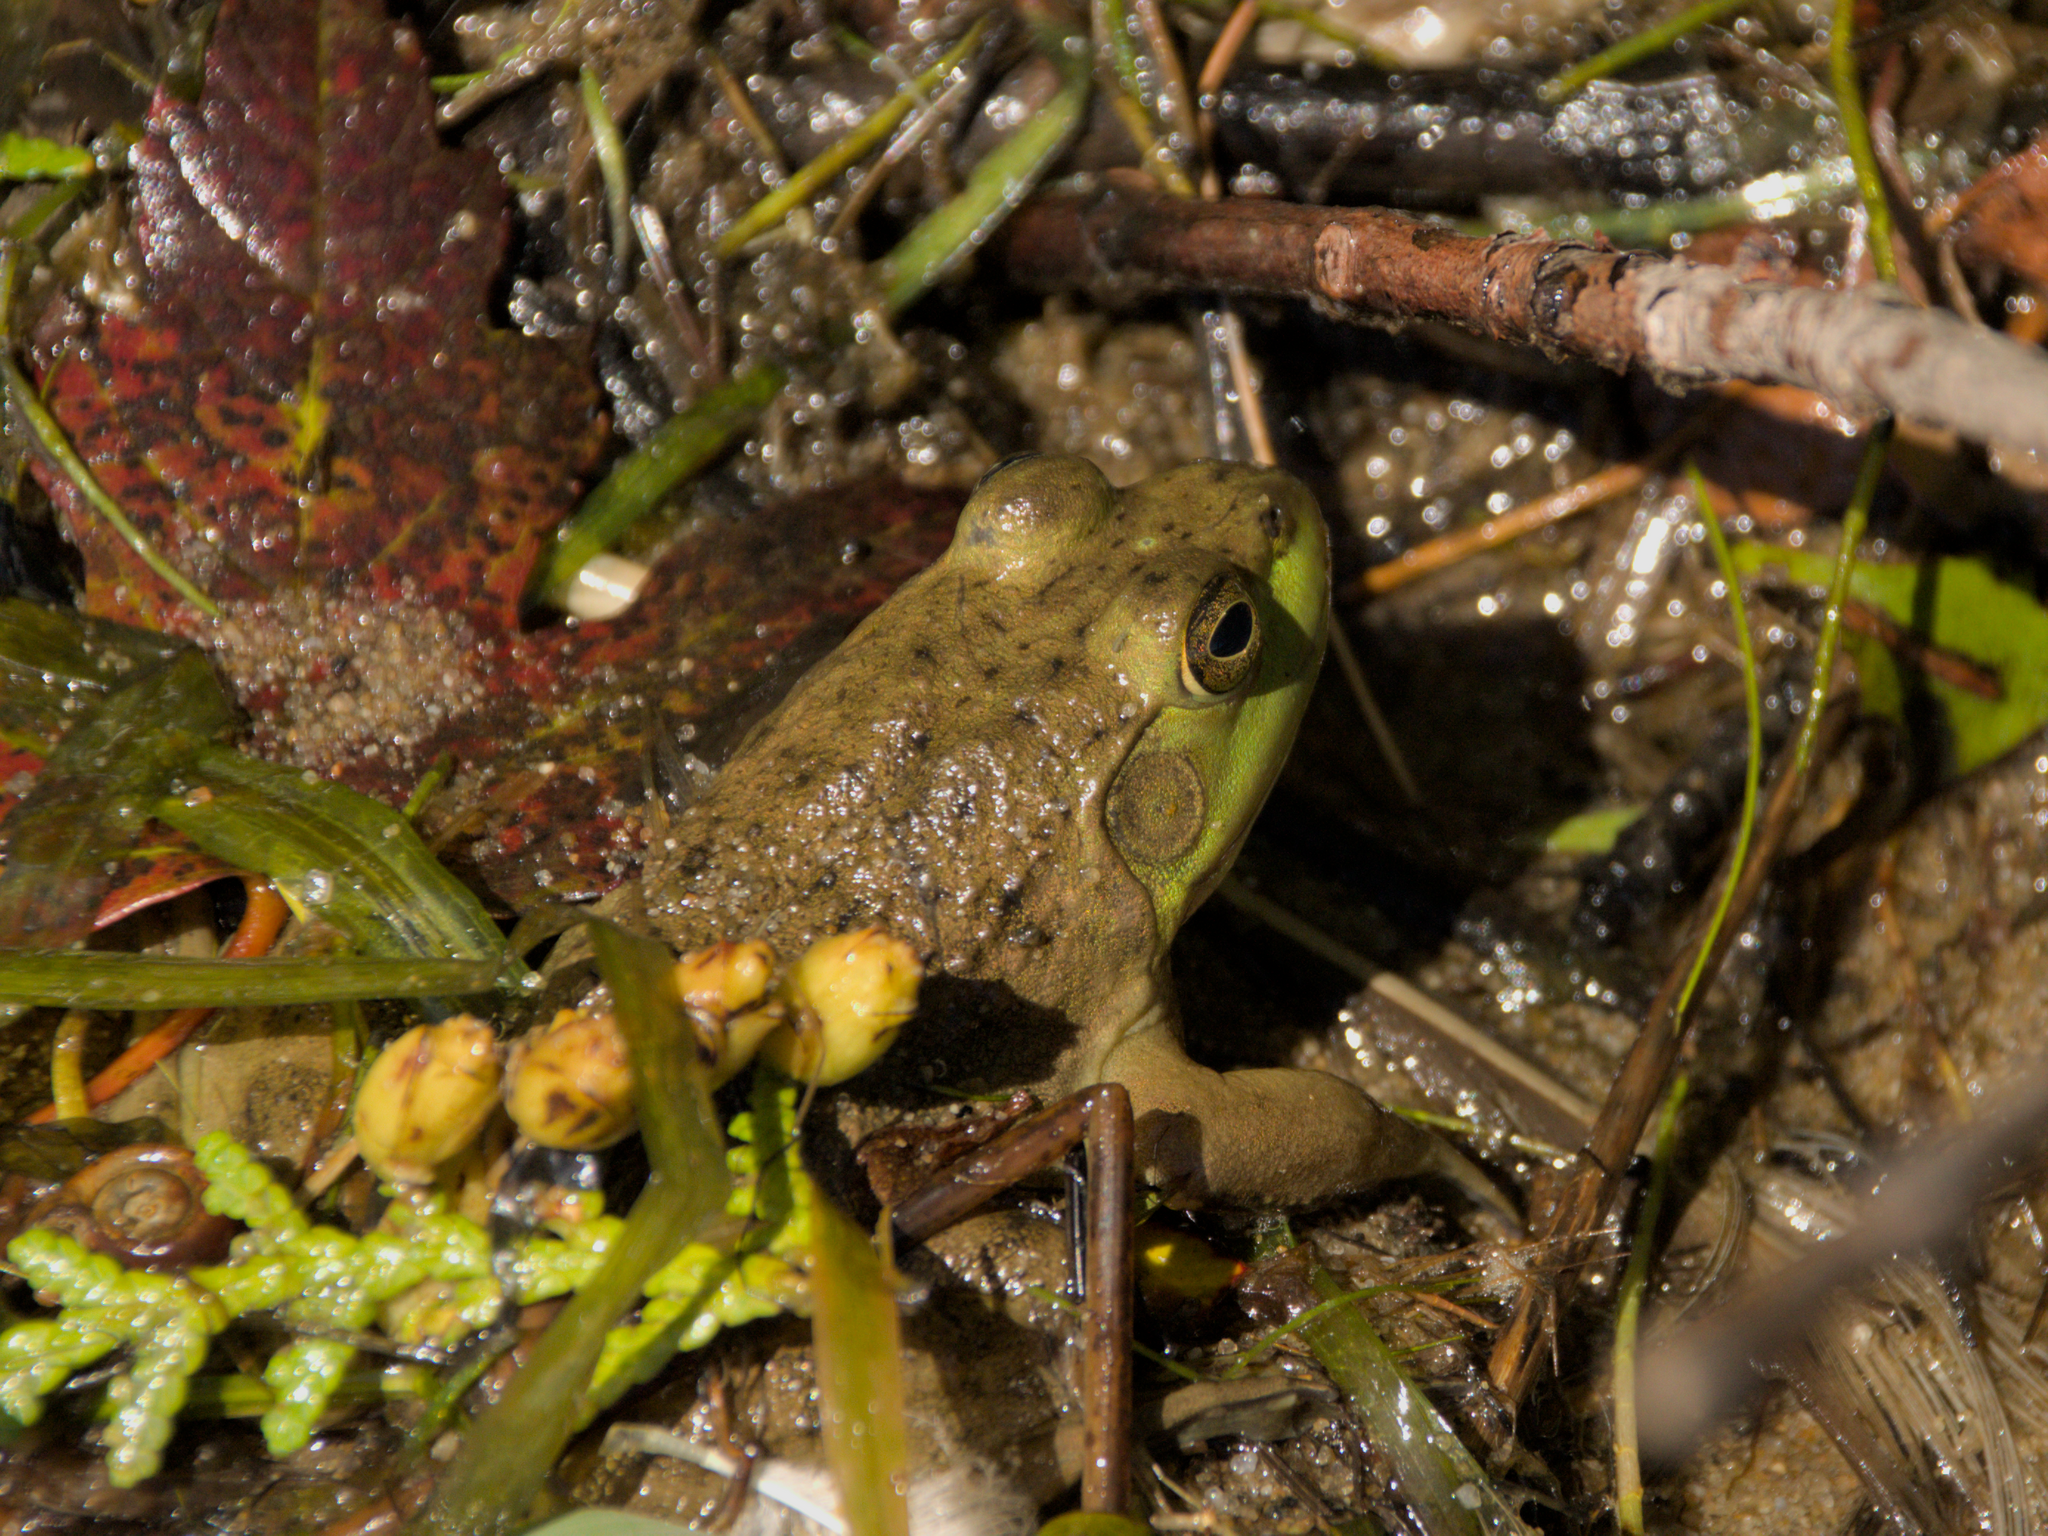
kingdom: Animalia
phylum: Chordata
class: Amphibia
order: Anura
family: Ranidae
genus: Lithobates
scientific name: Lithobates catesbeianus
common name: American bullfrog
